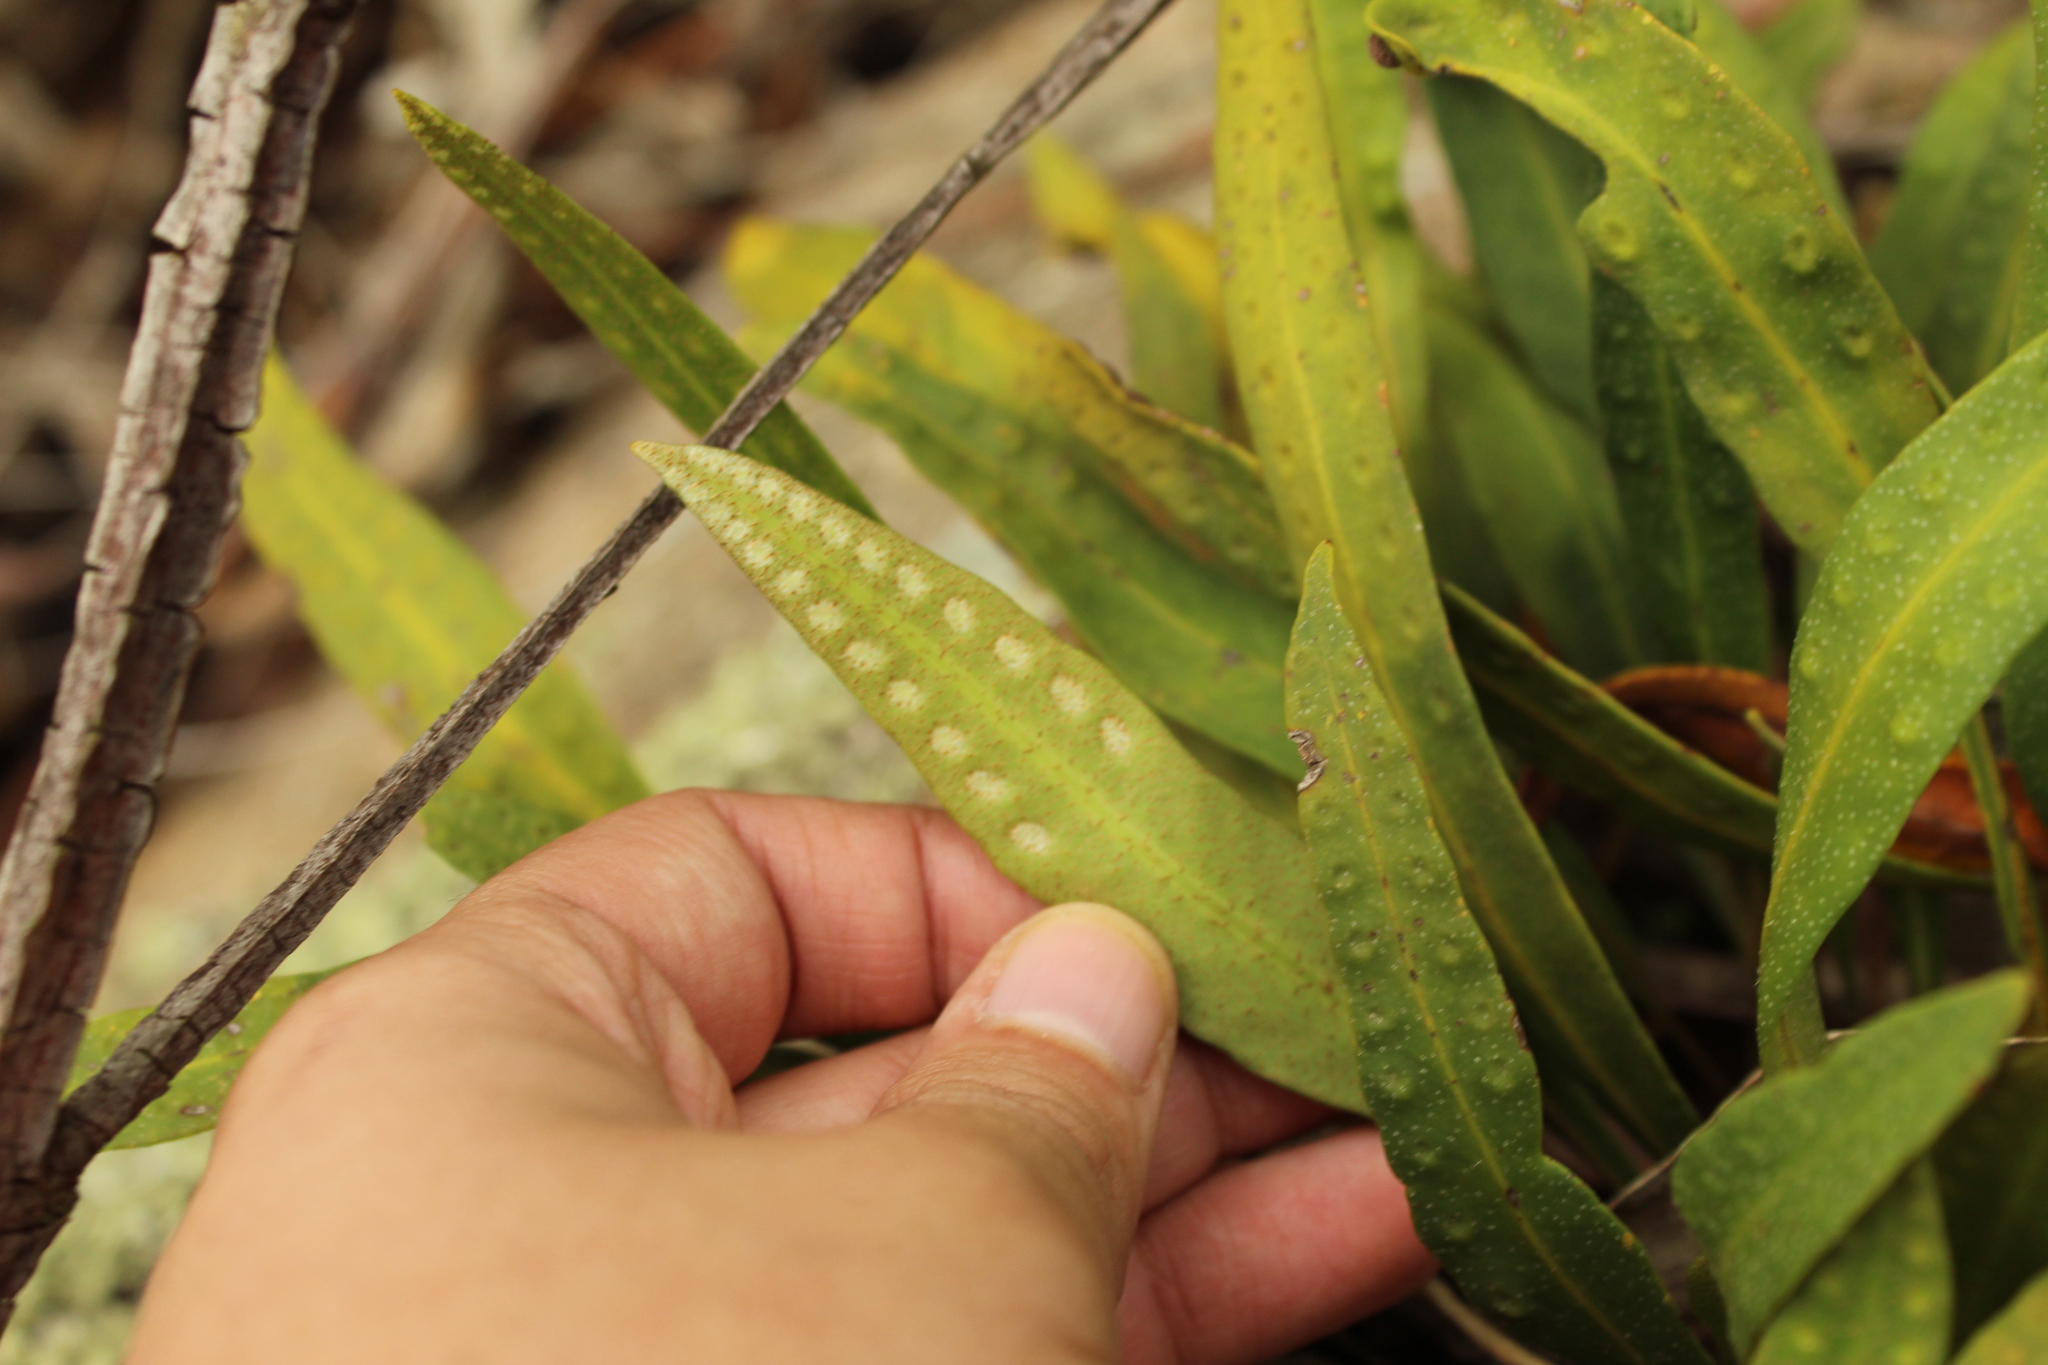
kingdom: Plantae
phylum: Tracheophyta
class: Polypodiopsida
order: Polypodiales
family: Polypodiaceae
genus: Pleopeltis
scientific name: Pleopeltis macrocarpa
